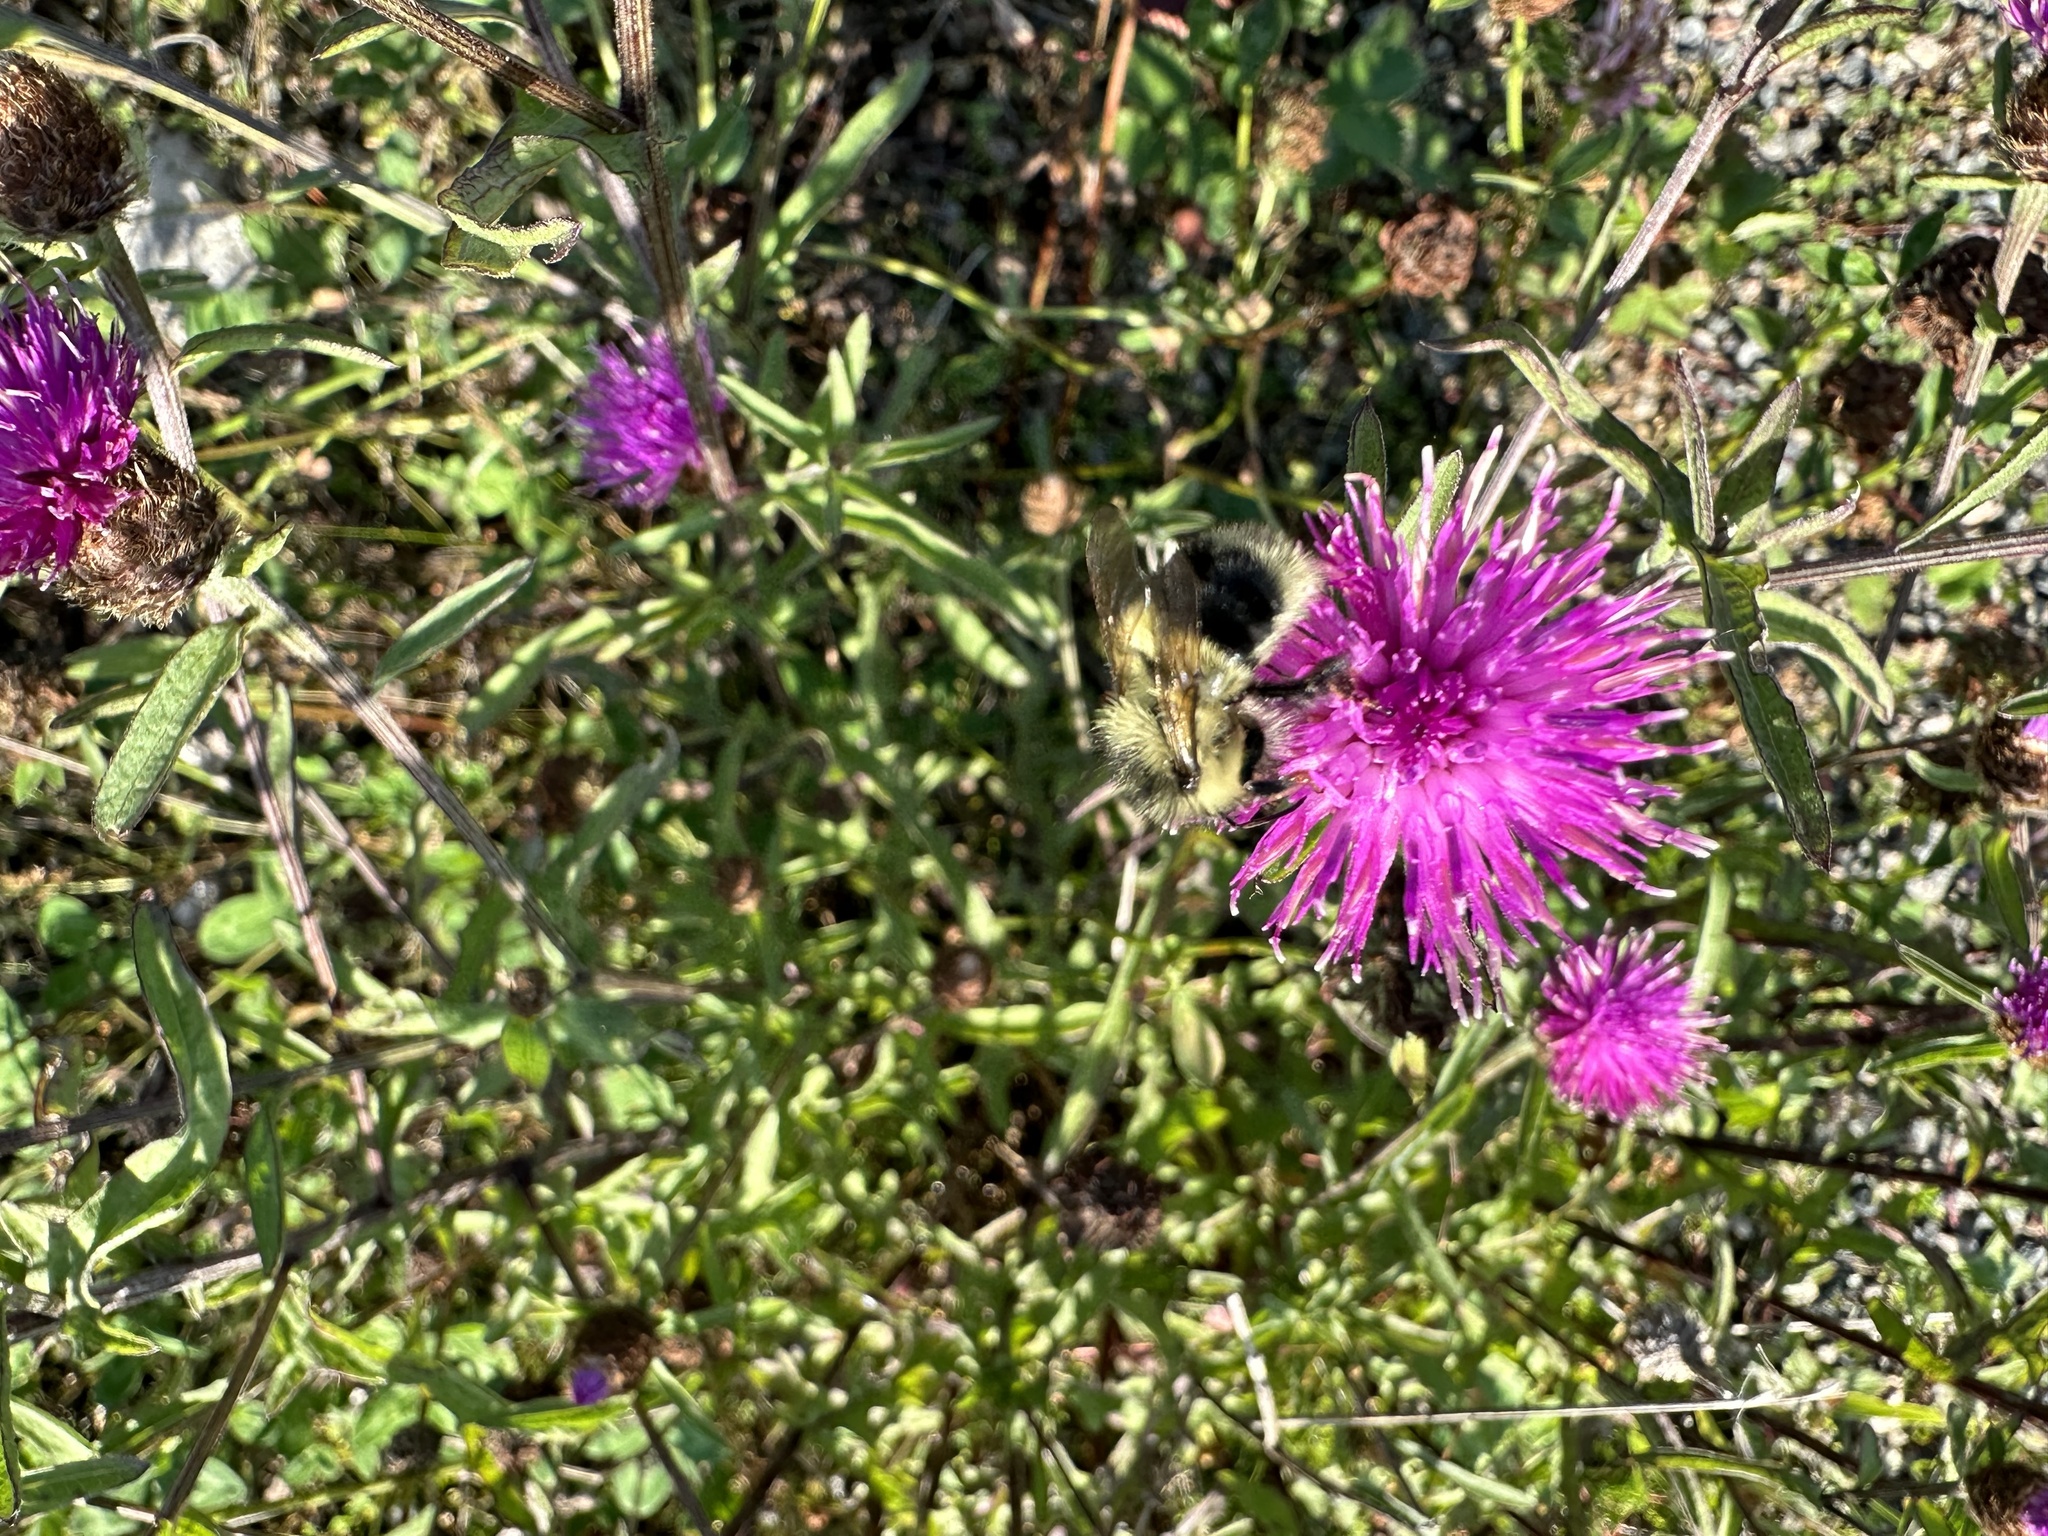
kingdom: Plantae
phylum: Tracheophyta
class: Magnoliopsida
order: Asterales
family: Asteraceae
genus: Centaurea
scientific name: Centaurea nigra
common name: Lesser knapweed
